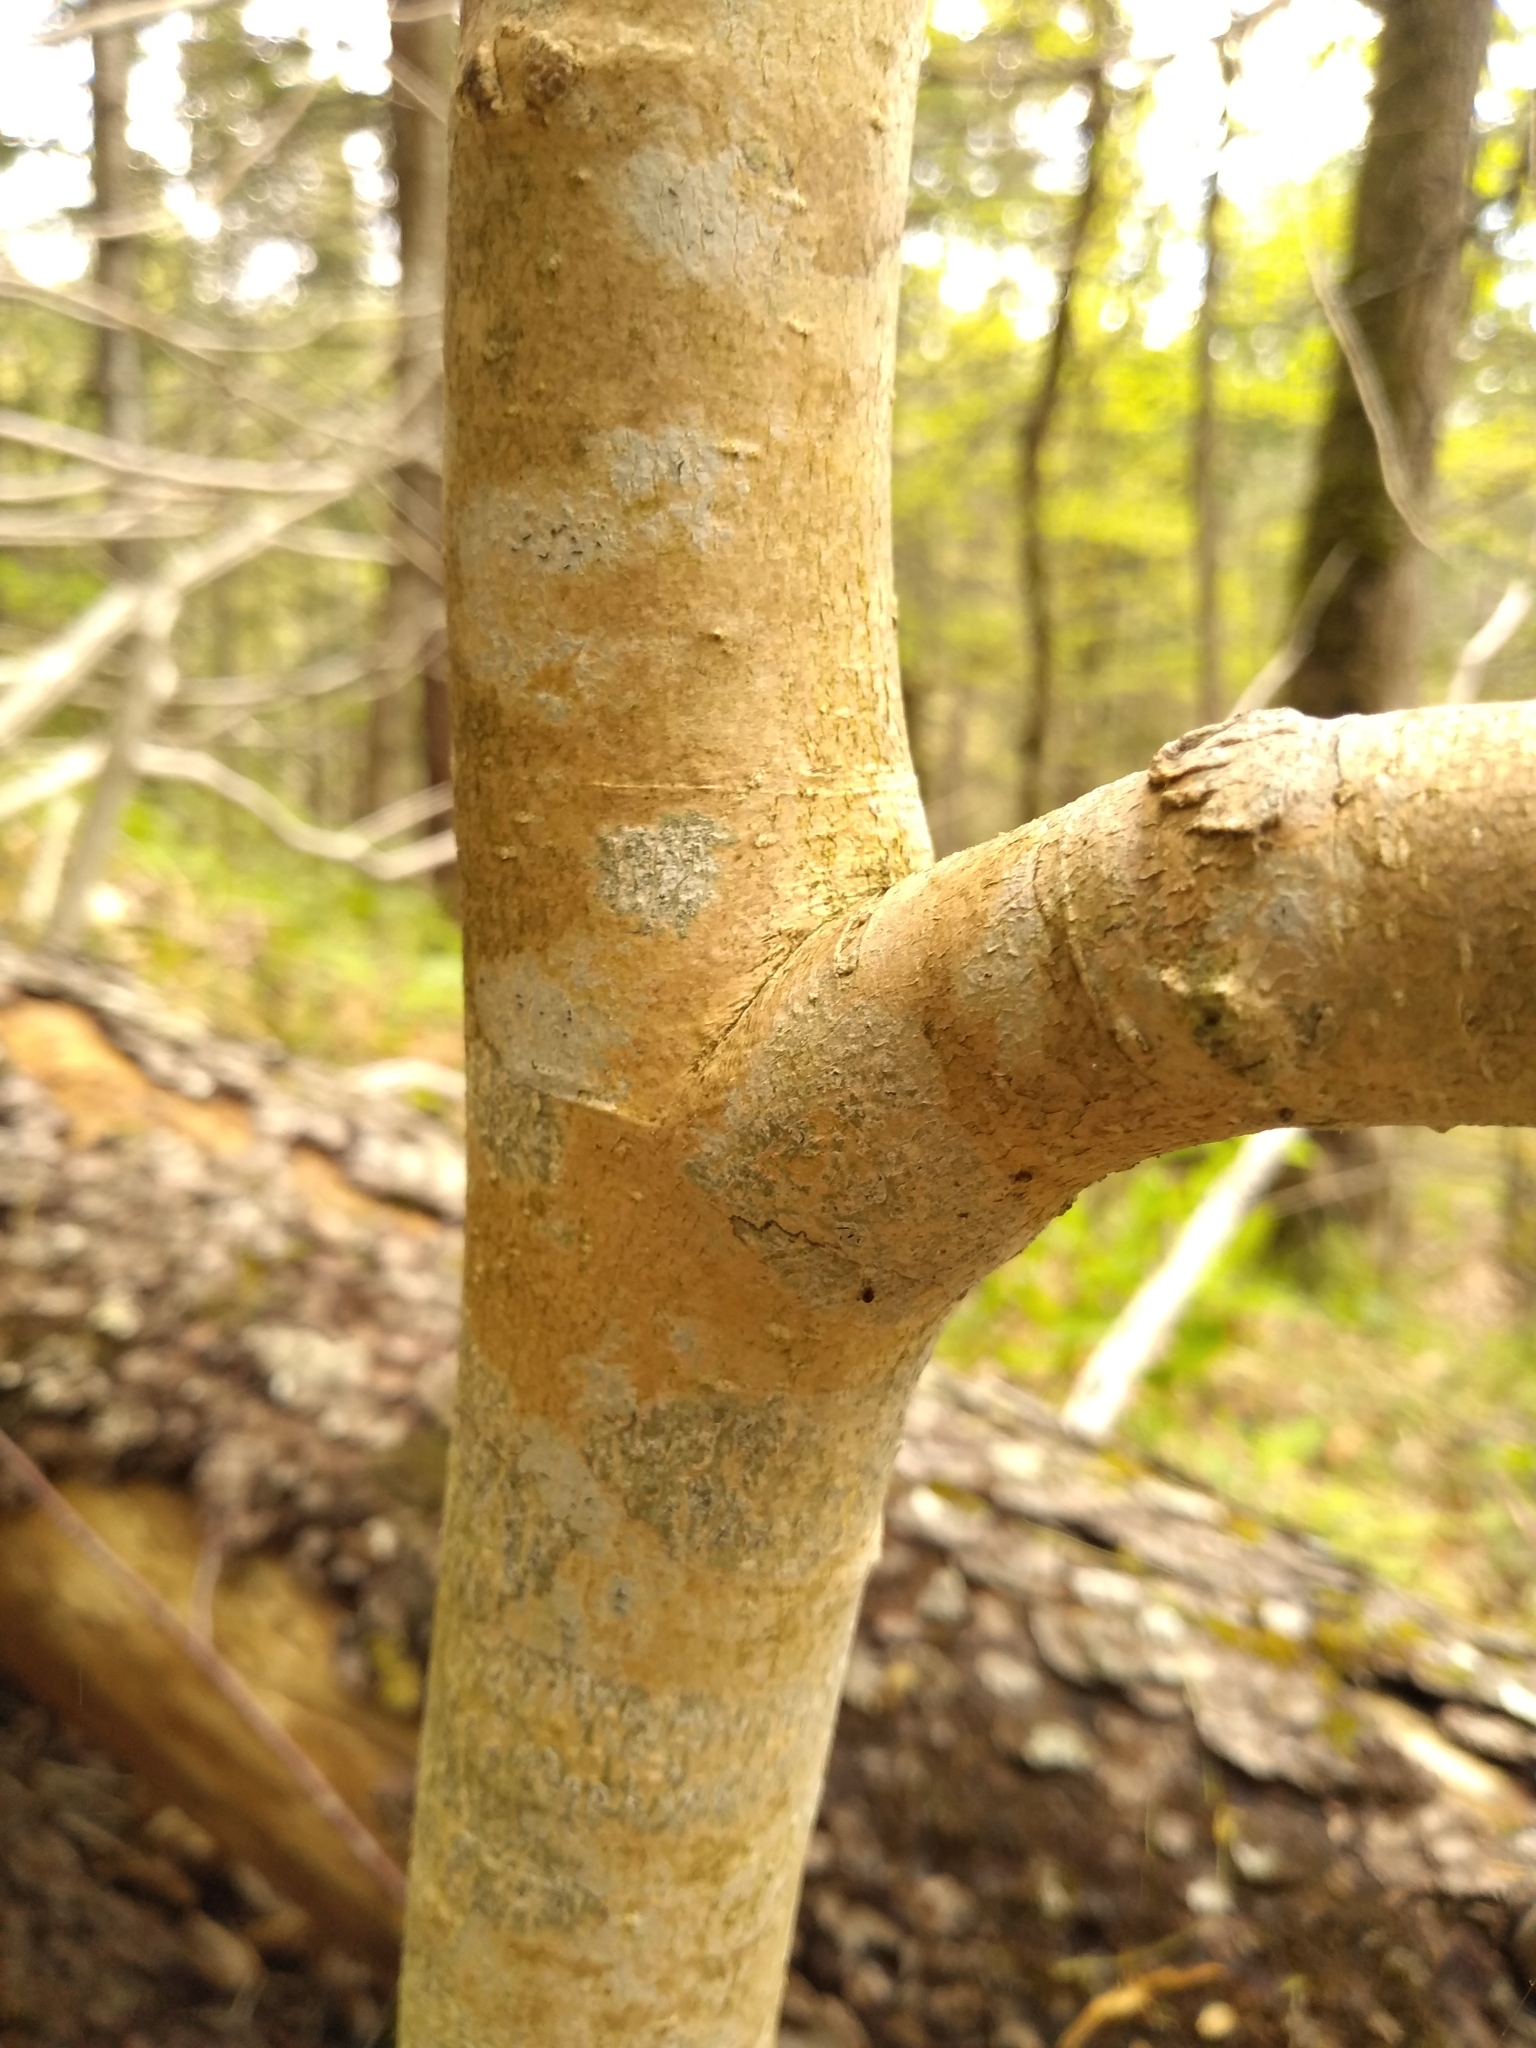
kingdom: Plantae
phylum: Tracheophyta
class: Magnoliopsida
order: Malvales
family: Thymelaeaceae
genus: Dirca
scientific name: Dirca palustris
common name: Leatherwood
